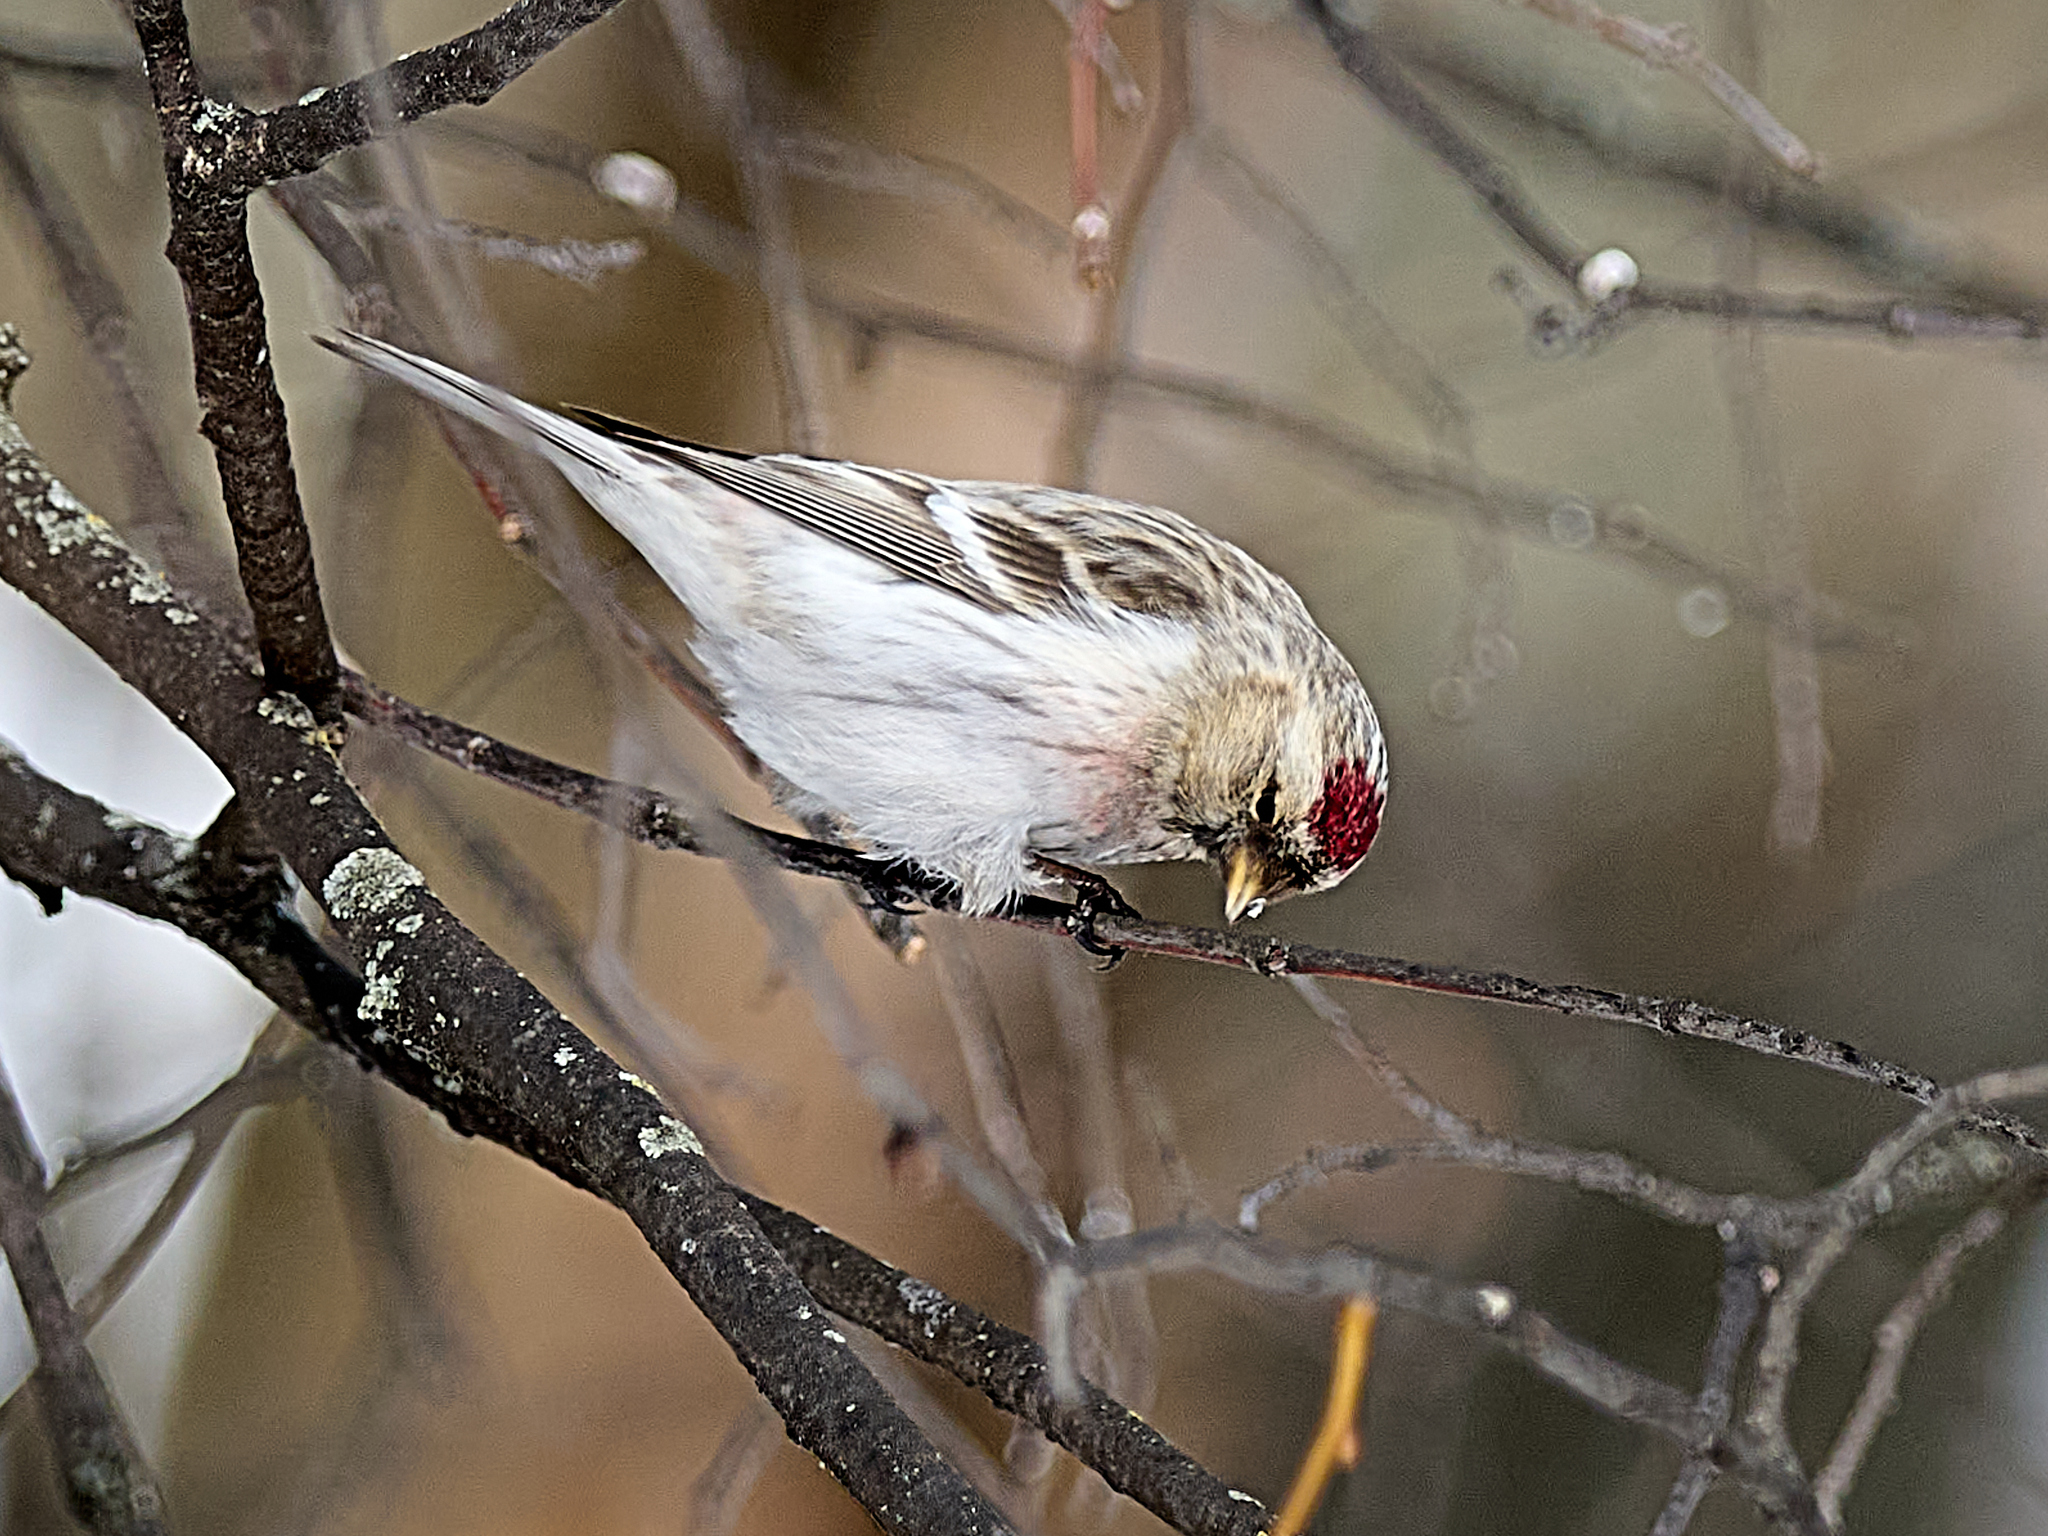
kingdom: Animalia
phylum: Chordata
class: Aves
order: Passeriformes
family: Fringillidae
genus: Acanthis
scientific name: Acanthis hornemanni
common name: Arctic redpoll
